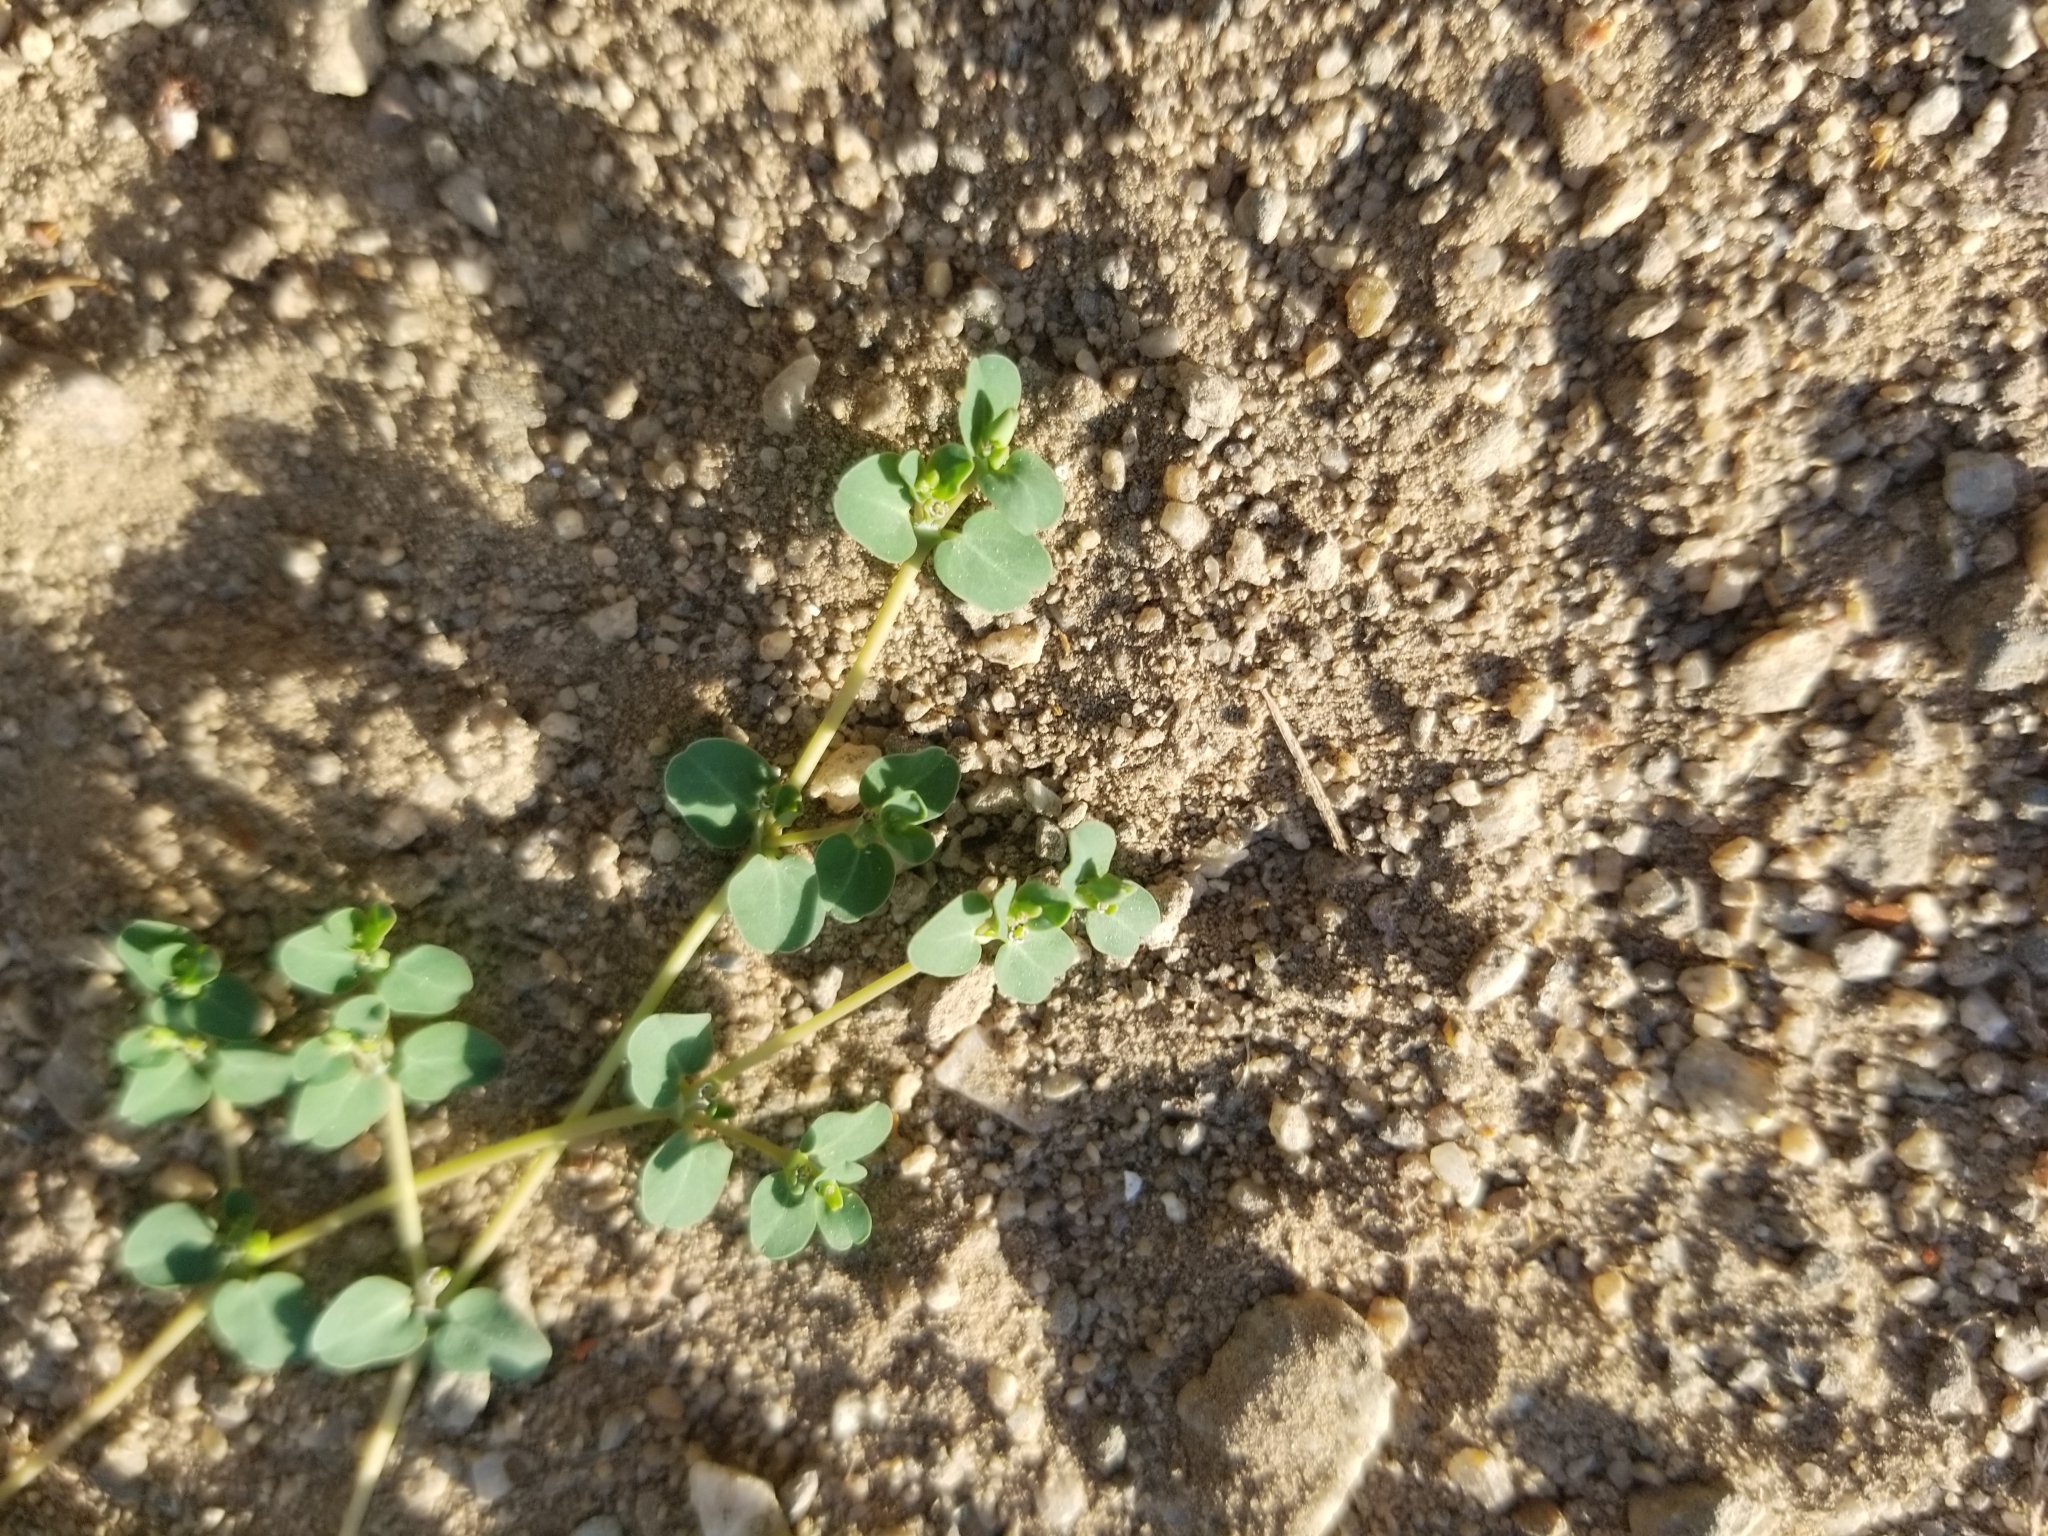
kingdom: Plantae
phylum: Tracheophyta
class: Magnoliopsida
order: Malpighiales
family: Euphorbiaceae
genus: Euphorbia
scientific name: Euphorbia serpens
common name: Matted sandmat
